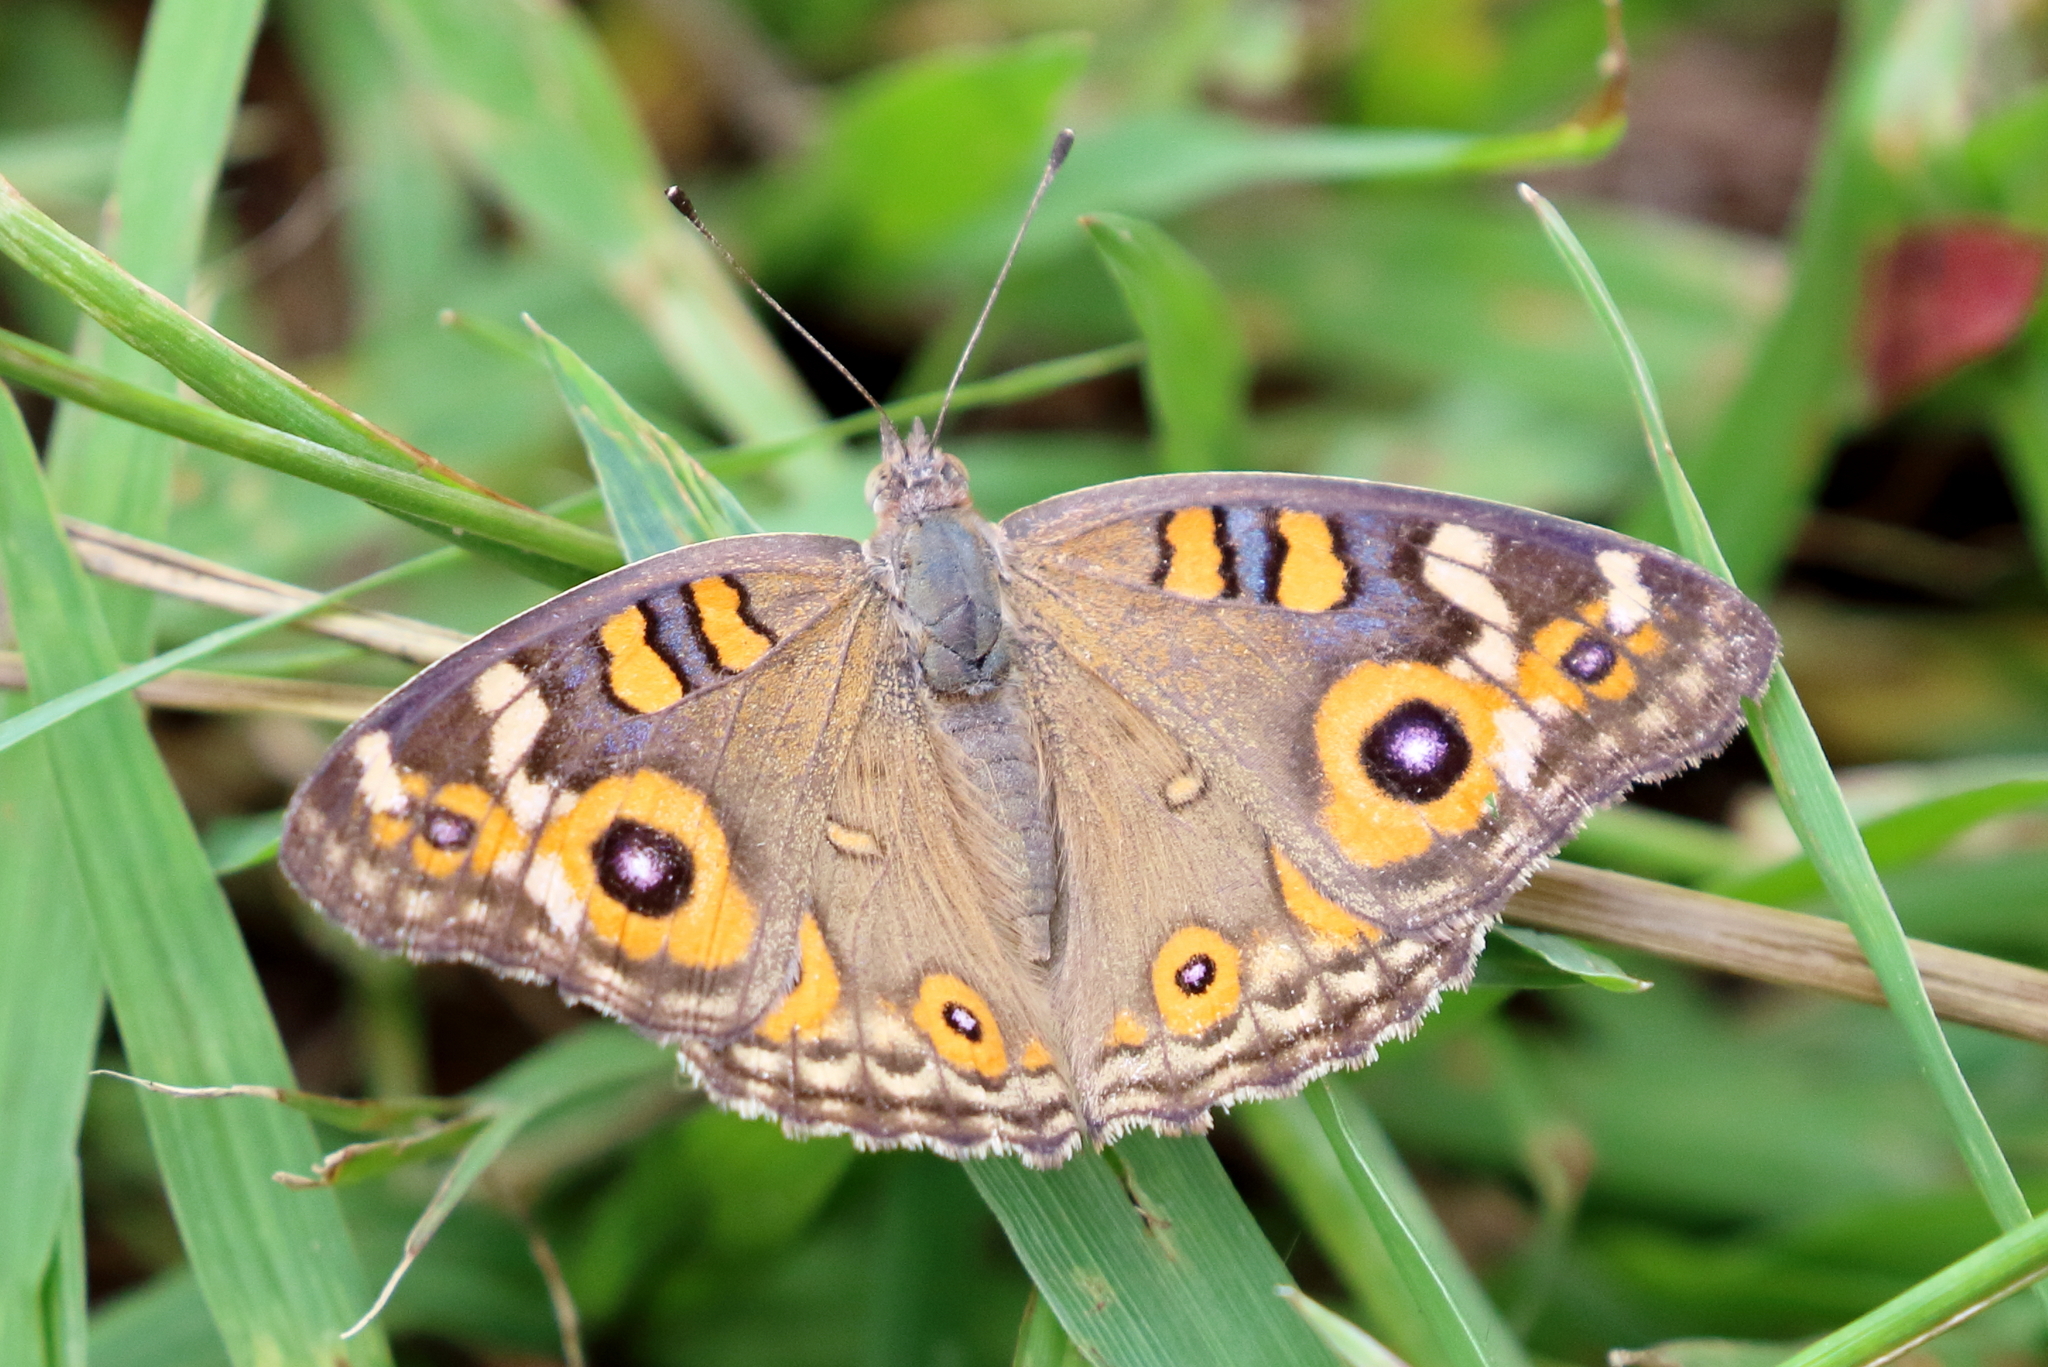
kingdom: Animalia
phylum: Arthropoda
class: Insecta
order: Lepidoptera
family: Nymphalidae
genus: Junonia
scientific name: Junonia villida
